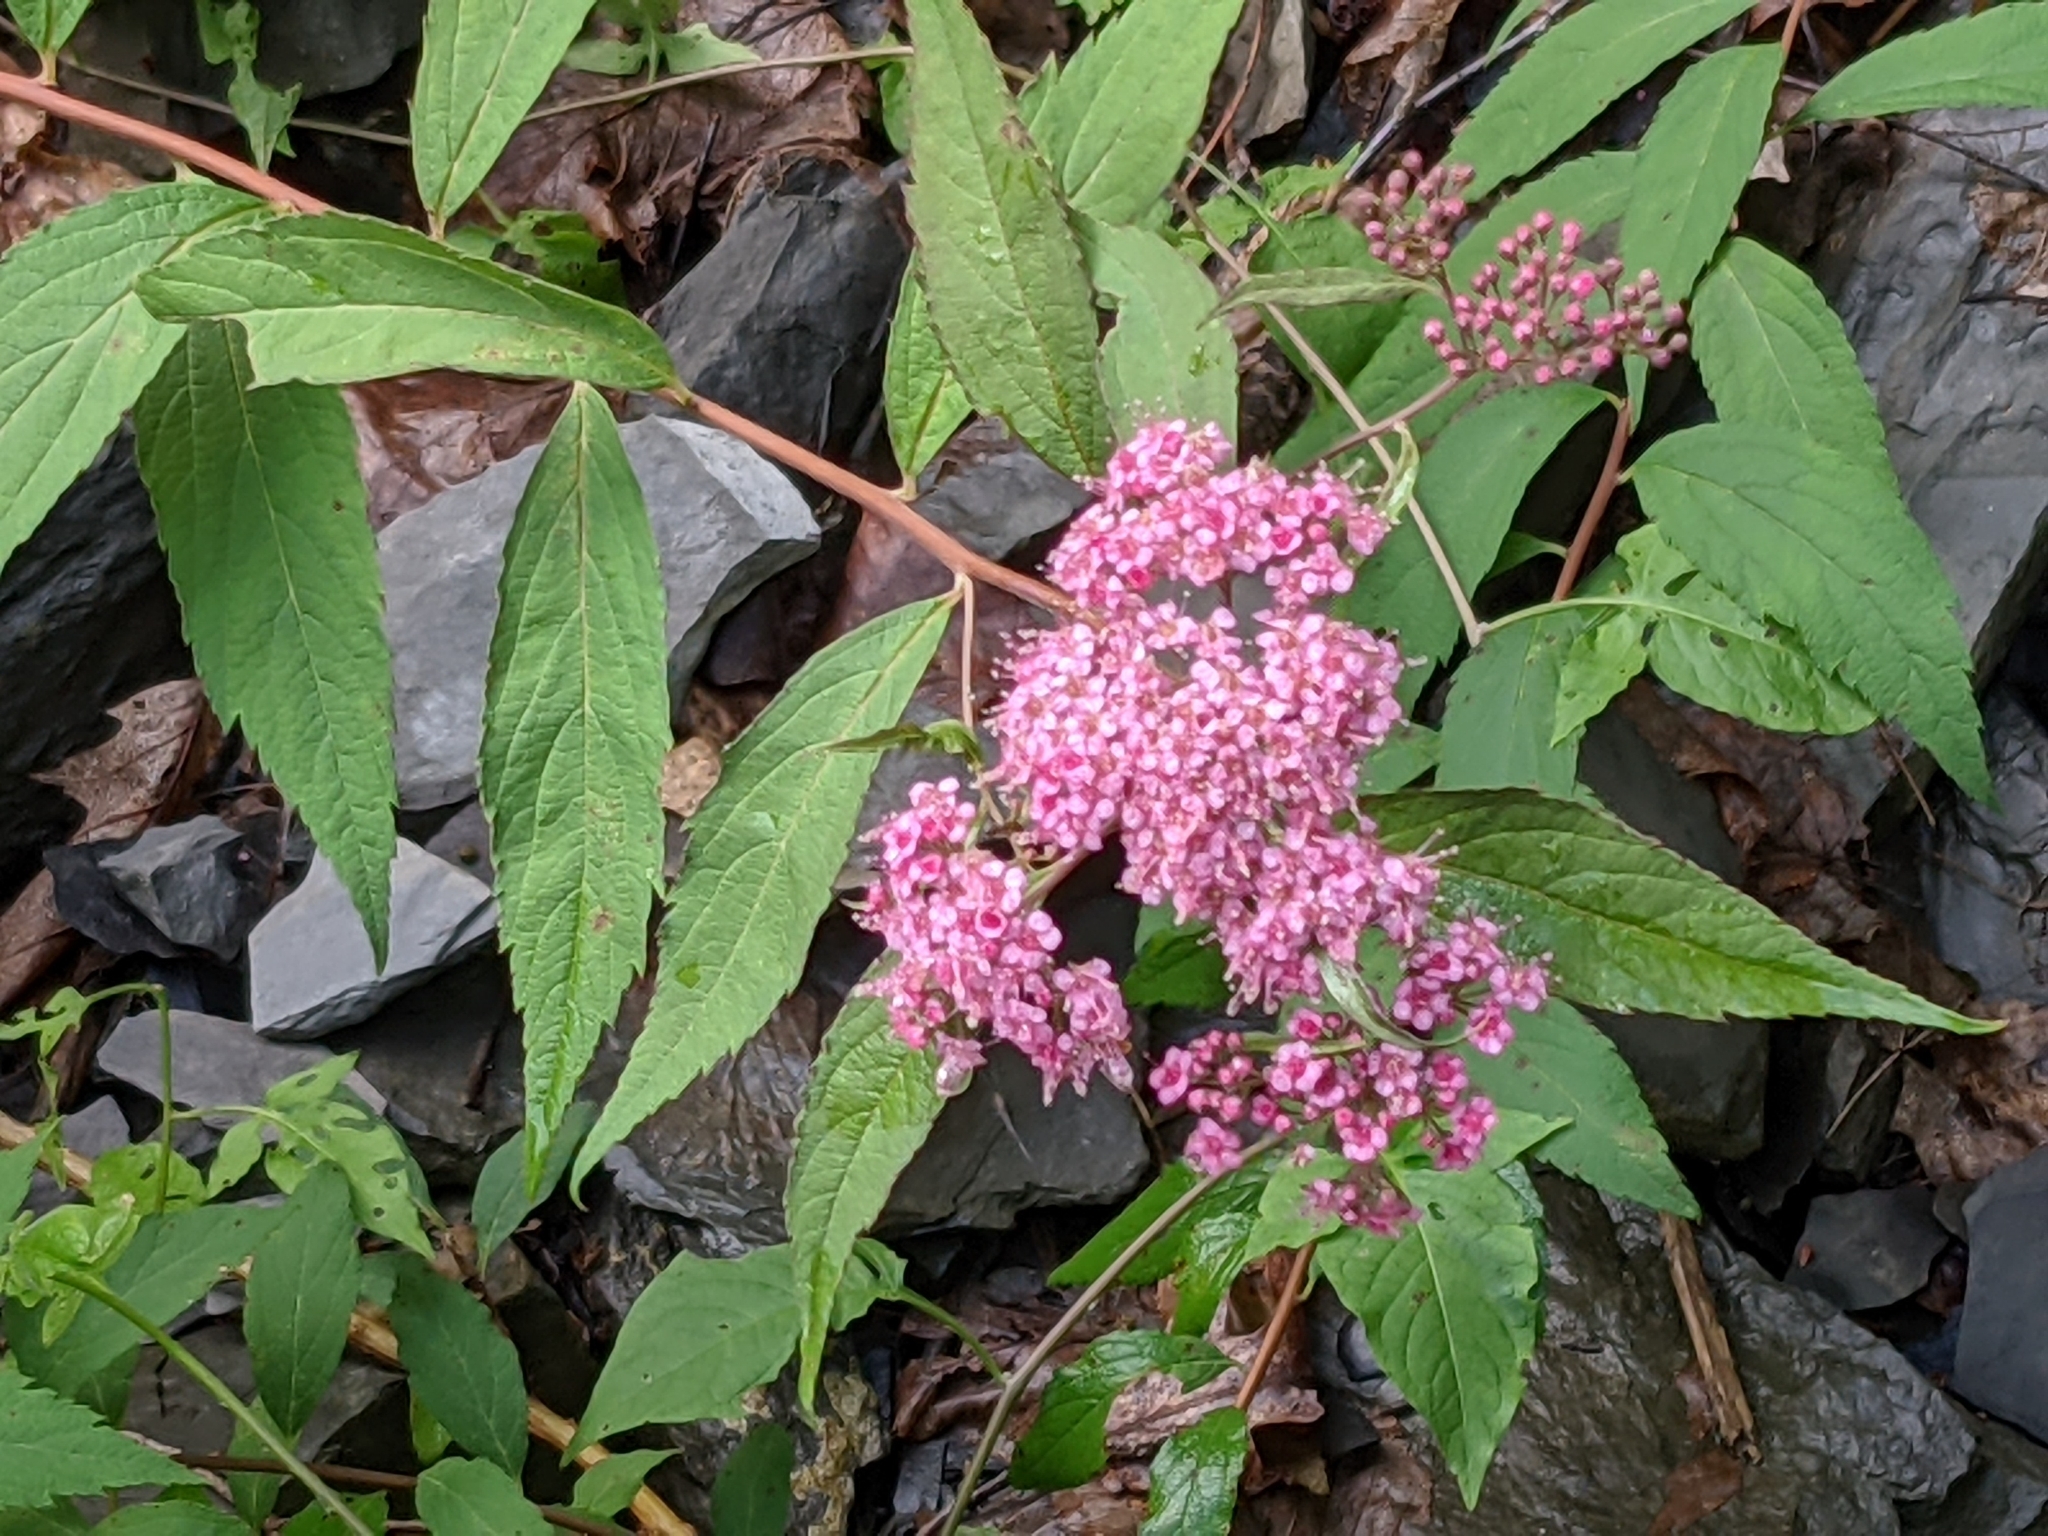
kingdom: Plantae
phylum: Tracheophyta
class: Magnoliopsida
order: Rosales
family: Rosaceae
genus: Spiraea
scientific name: Spiraea japonica
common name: Japanese spiraea
